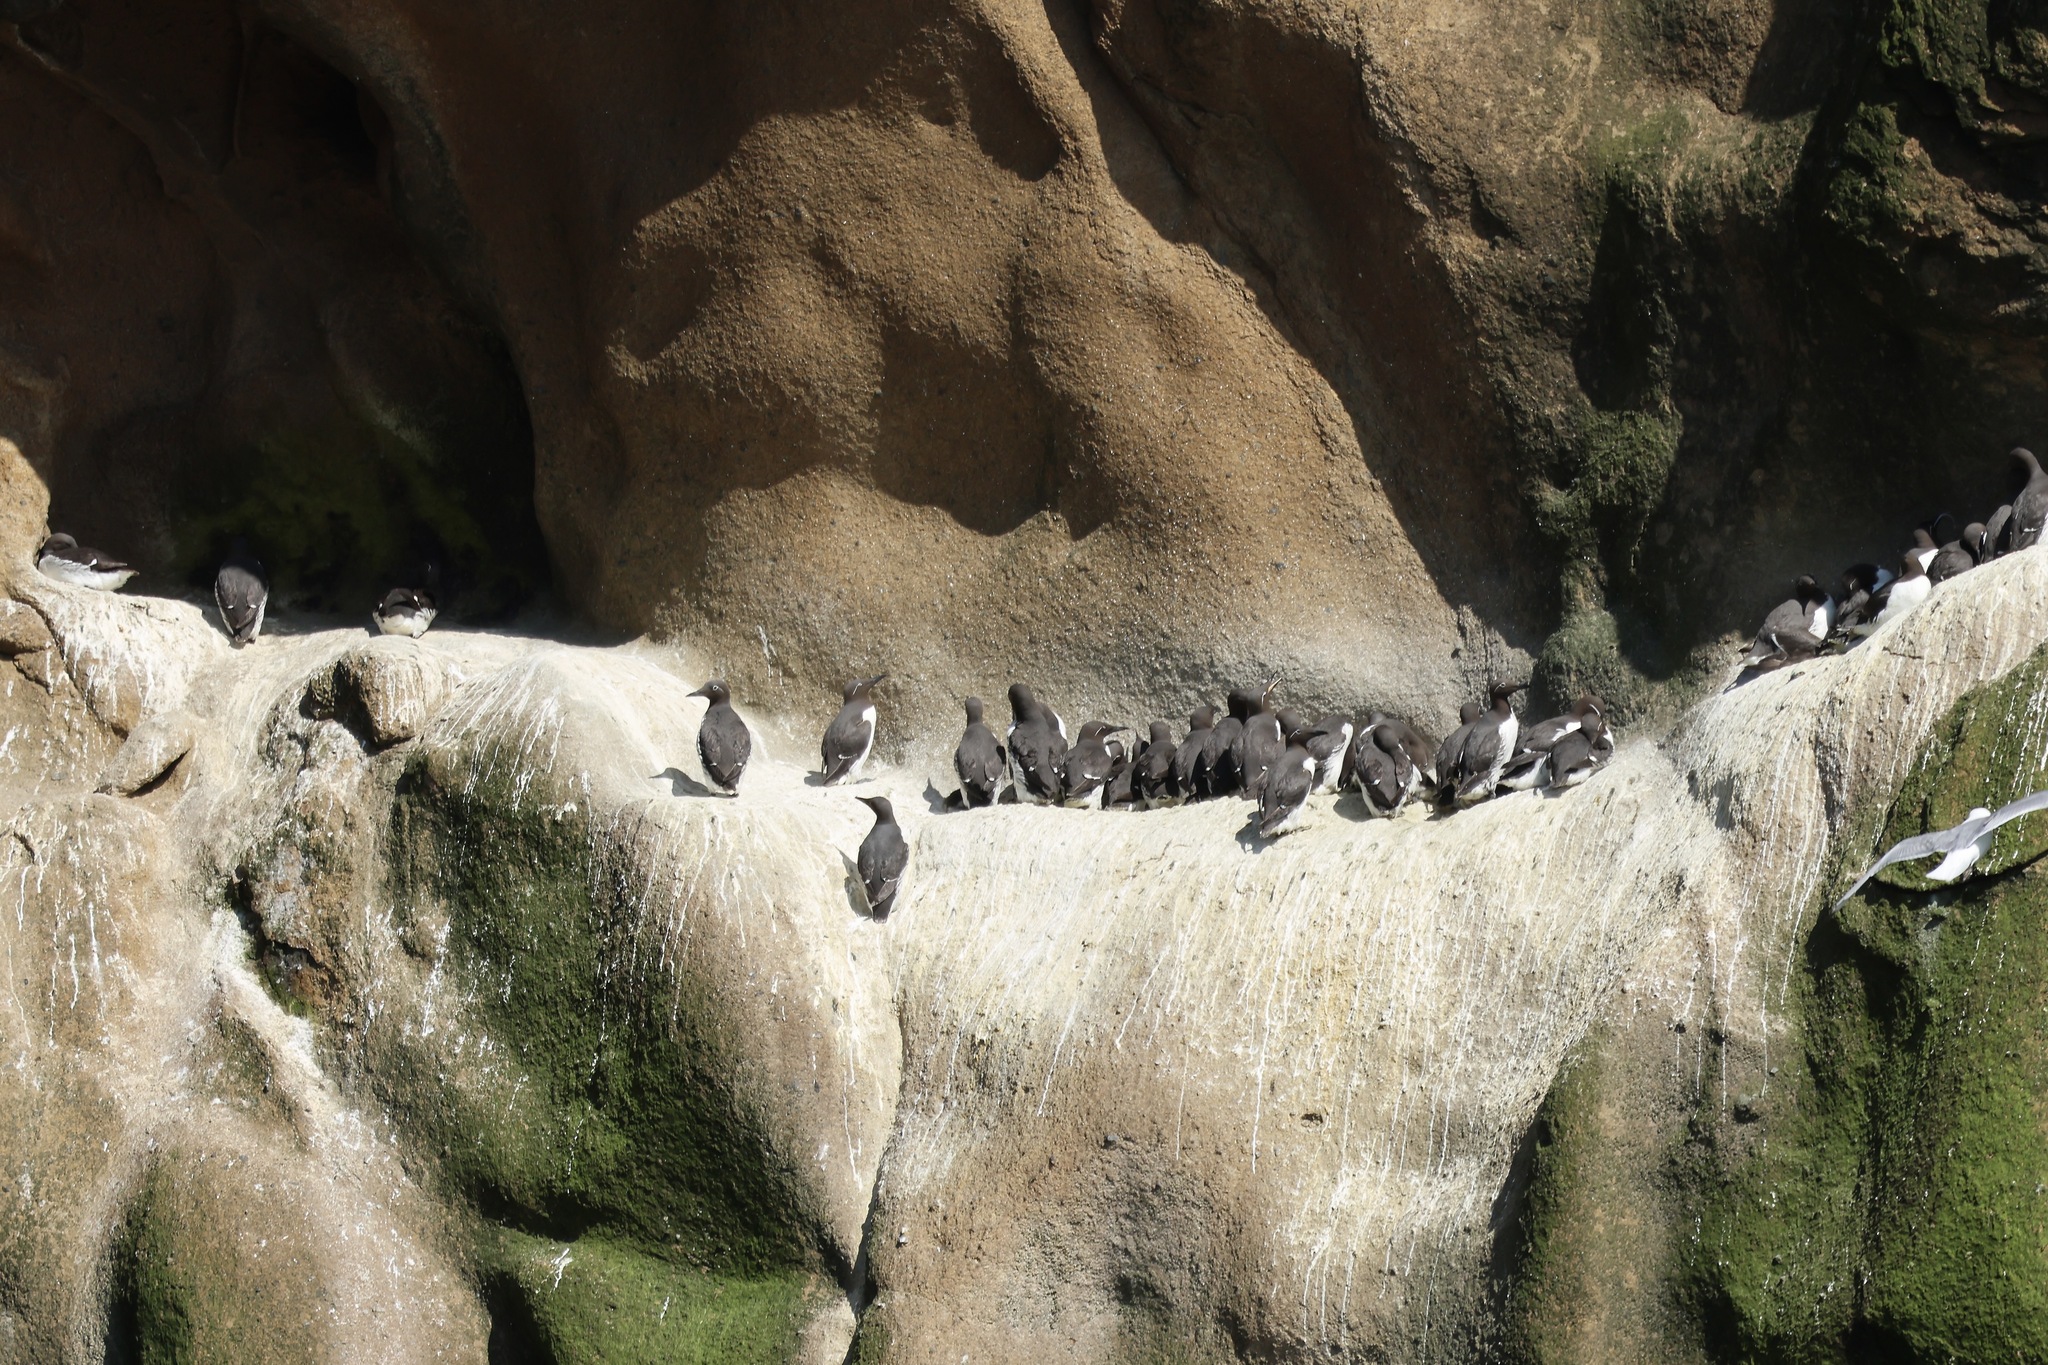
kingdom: Animalia
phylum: Chordata
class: Aves
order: Charadriiformes
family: Alcidae
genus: Uria
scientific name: Uria aalge
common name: Common murre
